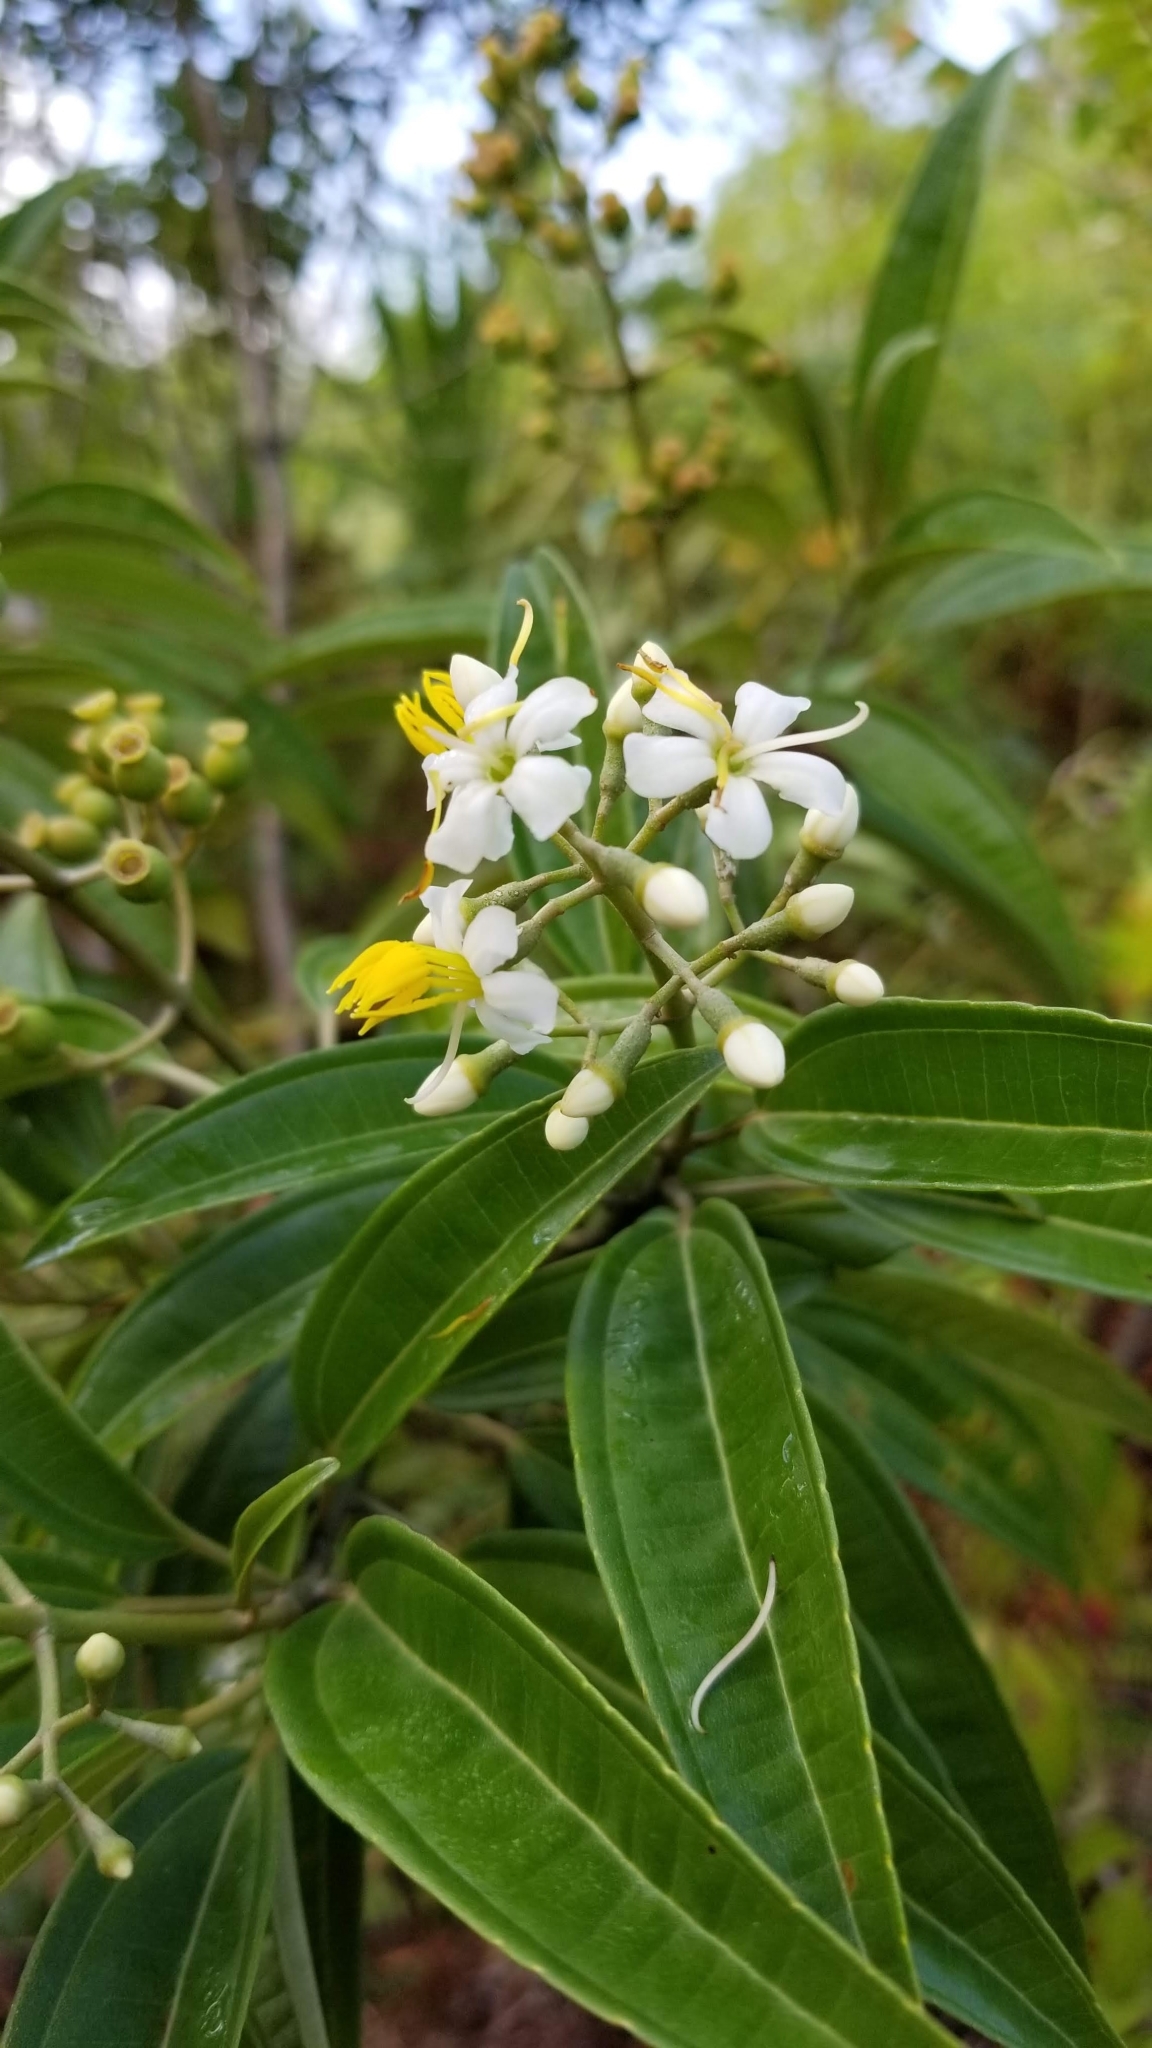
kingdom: Plantae
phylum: Tracheophyta
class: Magnoliopsida
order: Myrtales
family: Melastomataceae
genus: Miconia
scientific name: Miconia bicolor
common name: Johnnyberry
